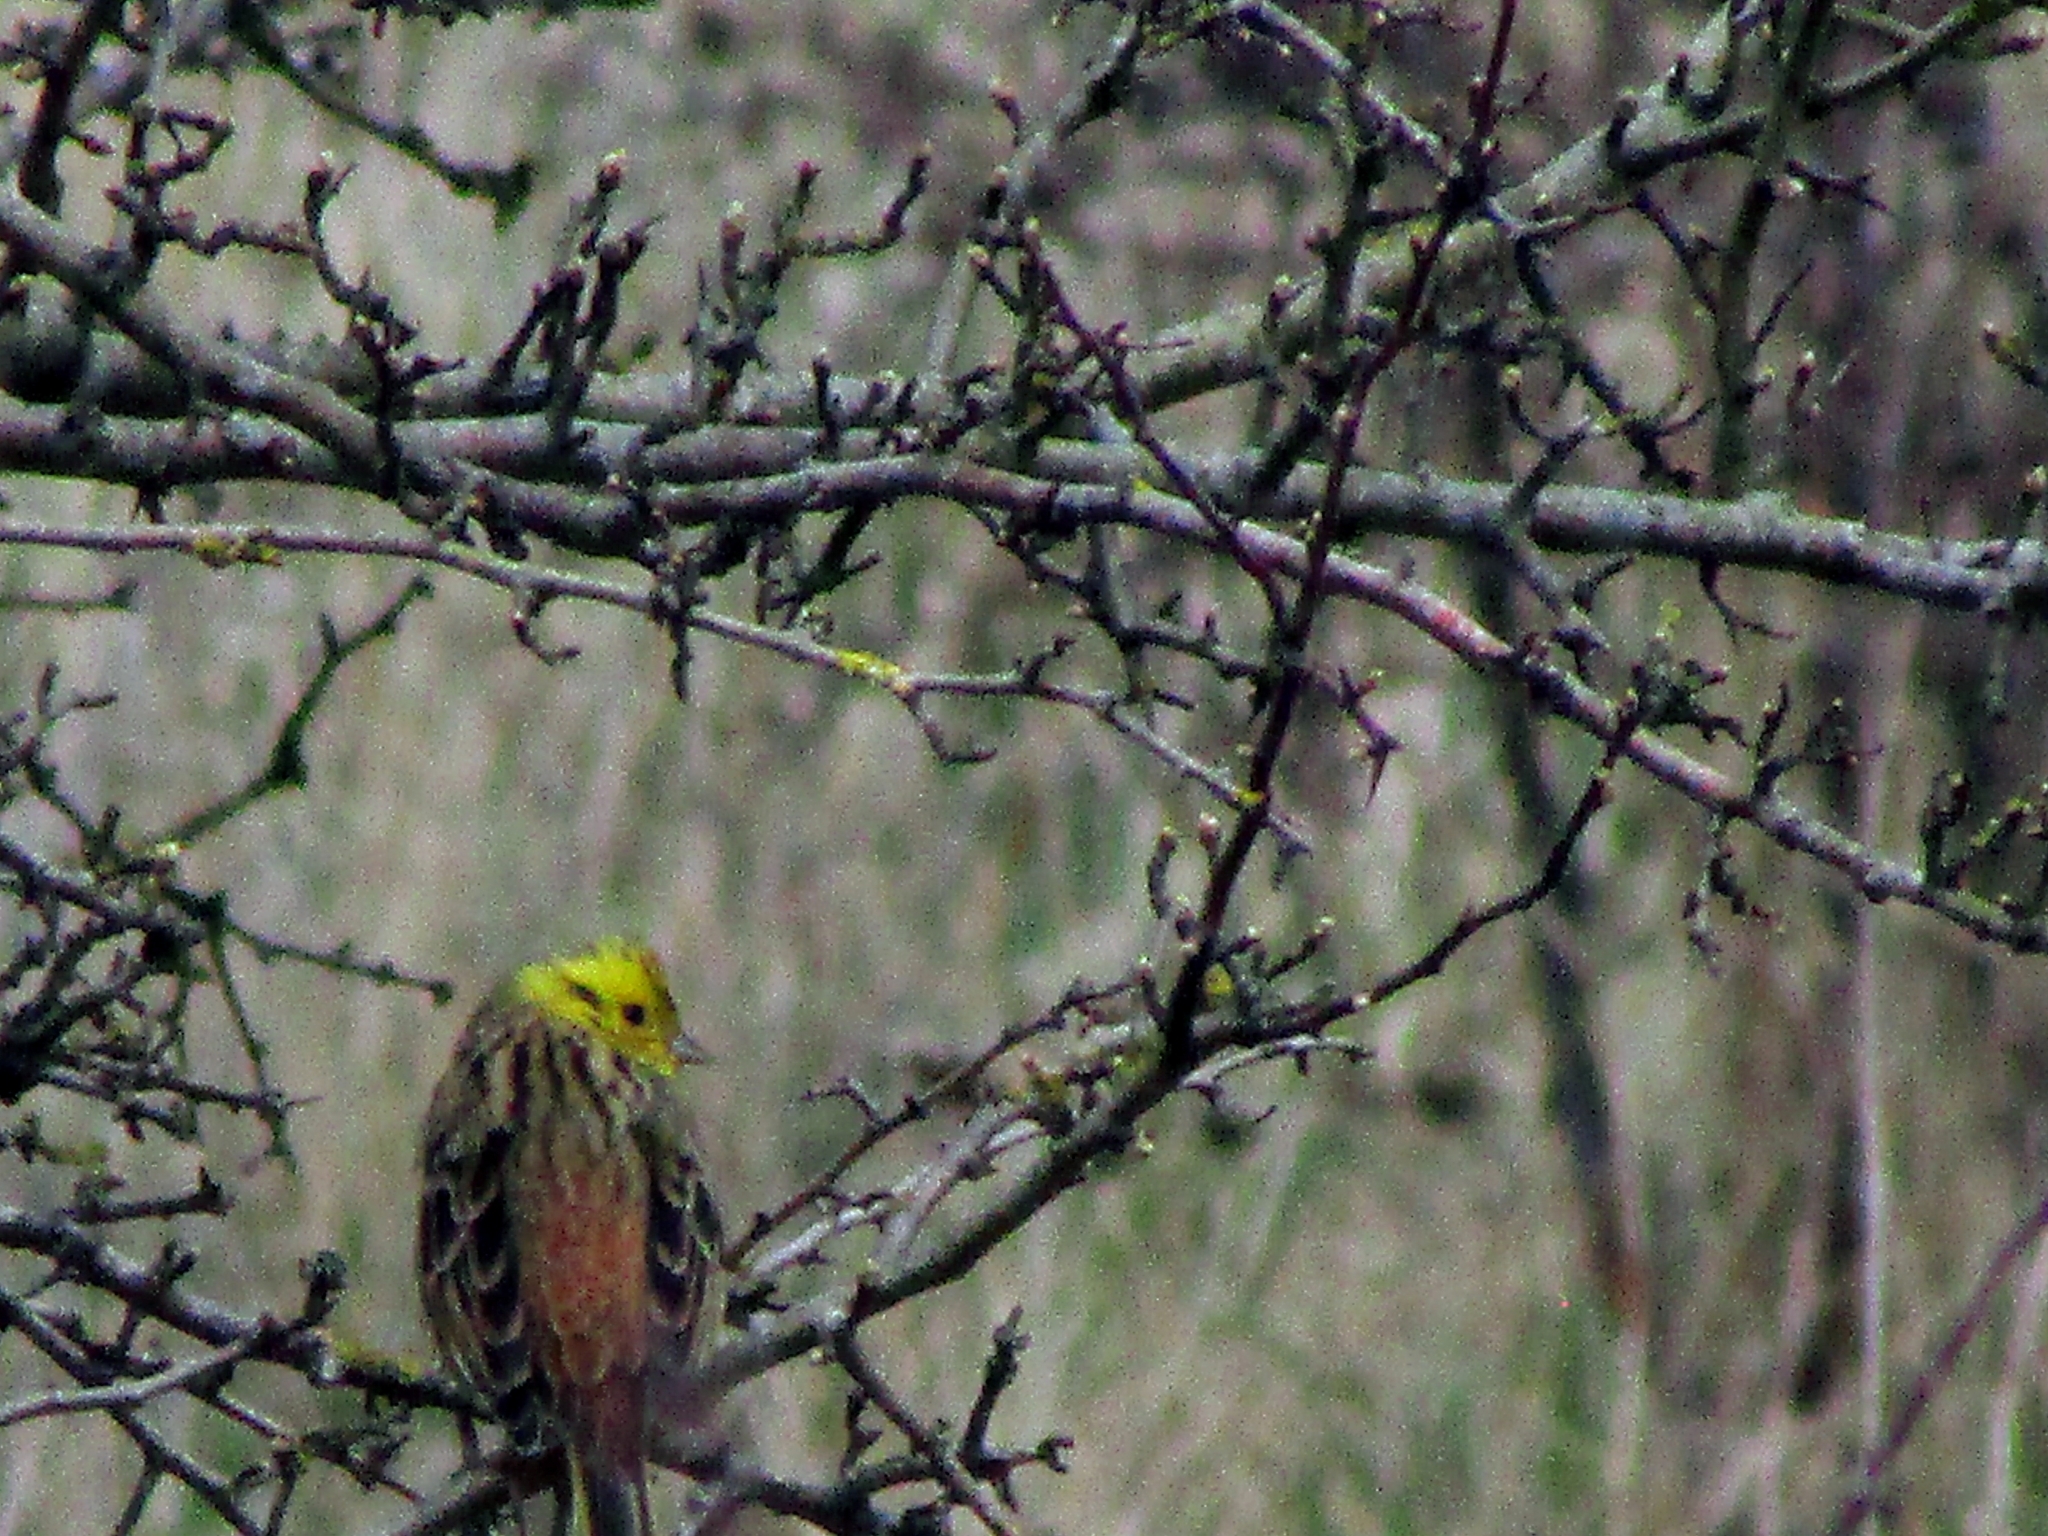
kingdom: Animalia
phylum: Chordata
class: Aves
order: Passeriformes
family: Emberizidae
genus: Emberiza
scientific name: Emberiza citrinella
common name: Yellowhammer
